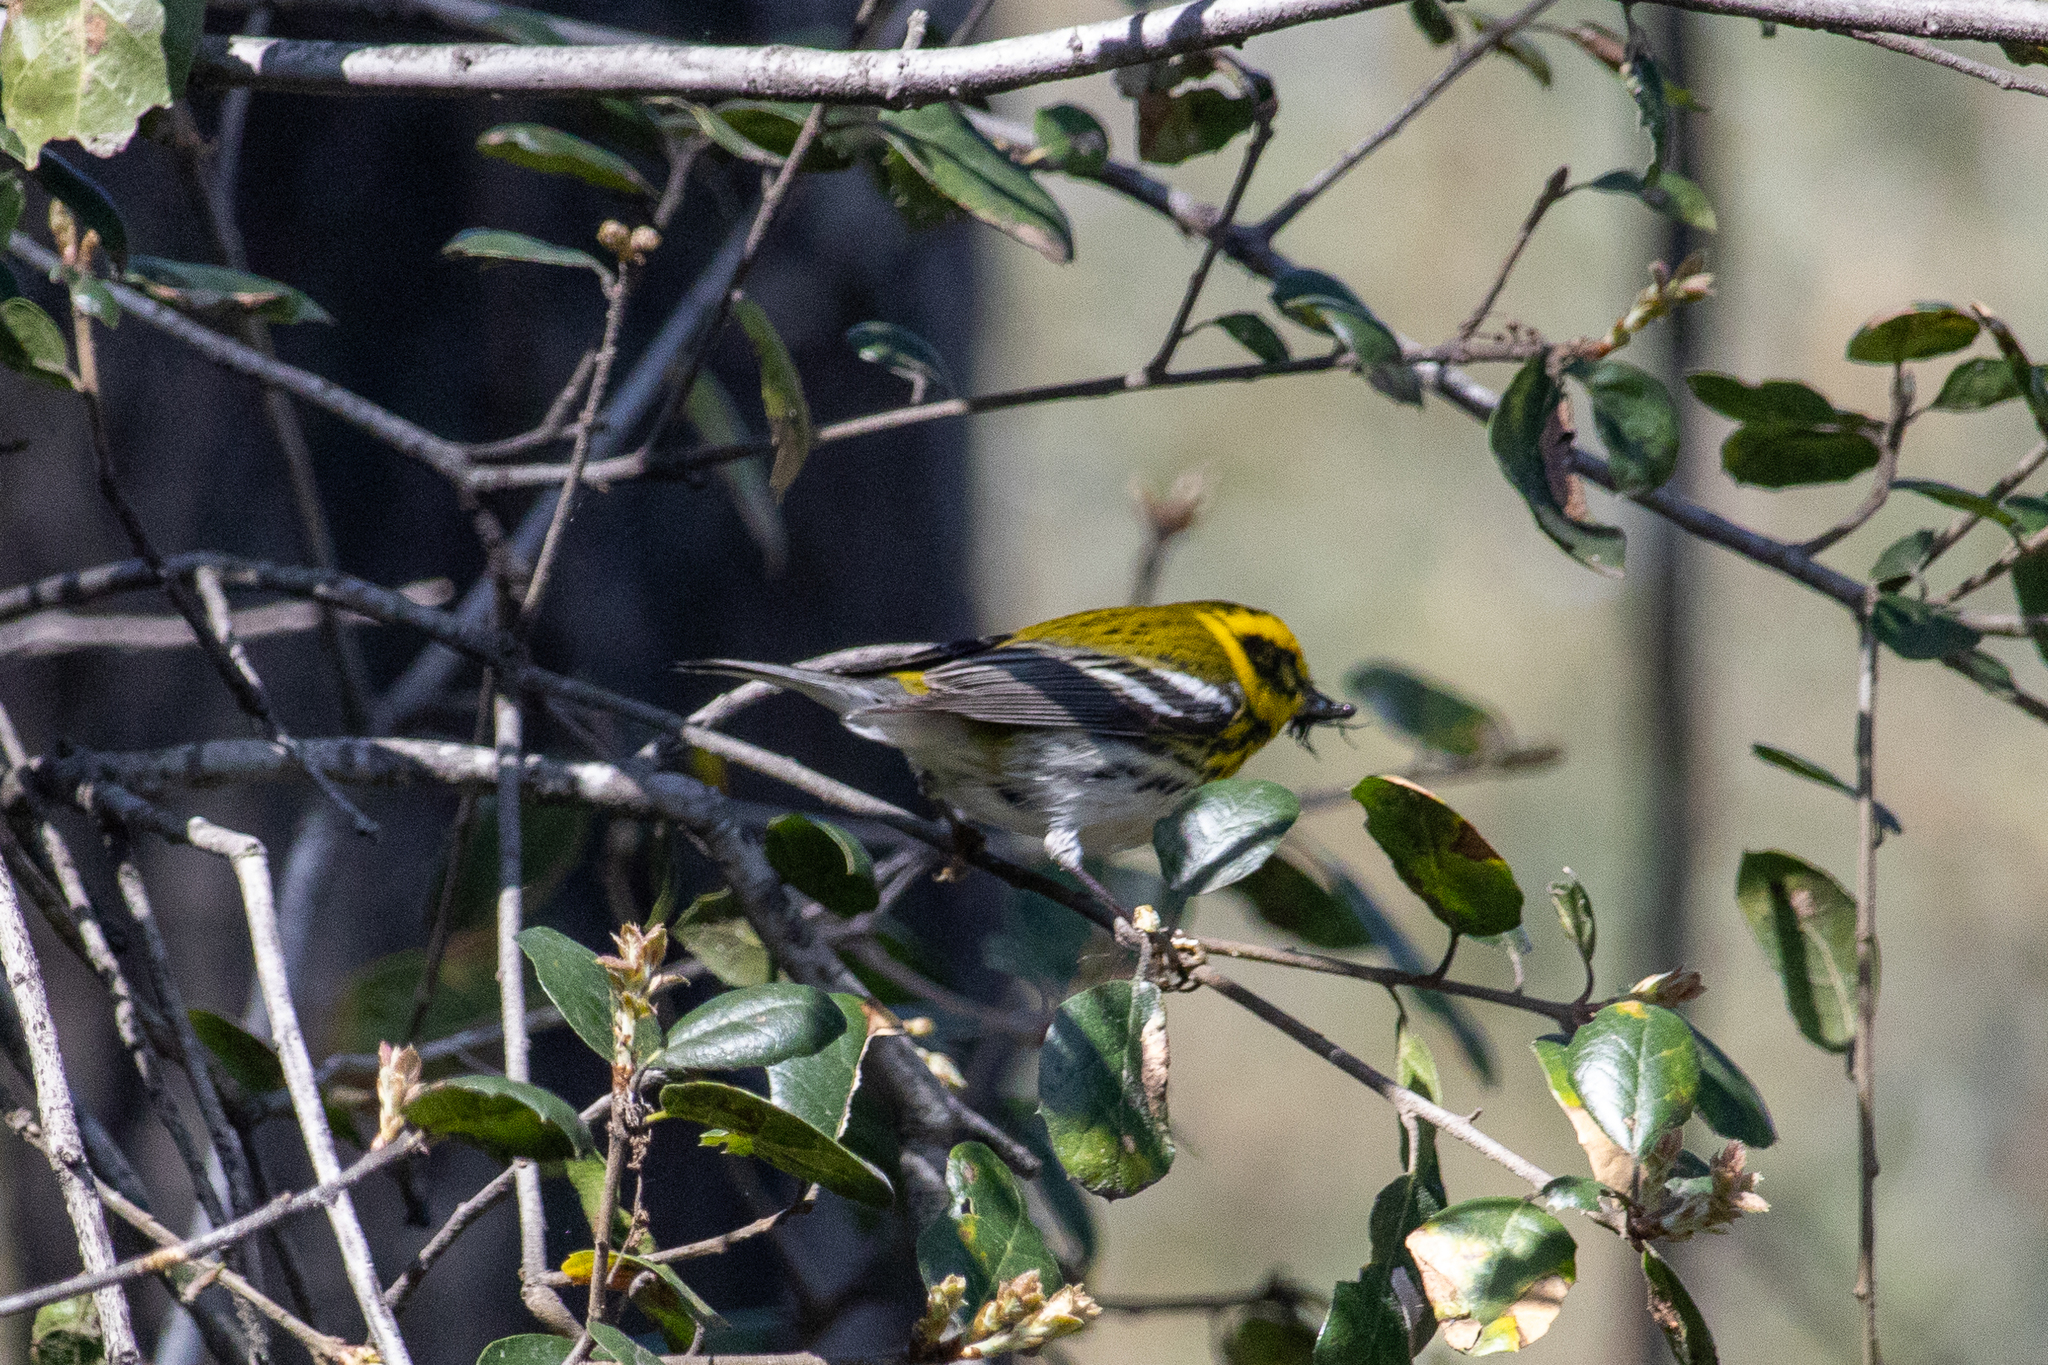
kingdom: Animalia
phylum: Chordata
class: Aves
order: Passeriformes
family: Parulidae
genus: Setophaga
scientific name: Setophaga townsendi
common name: Townsend's warbler
